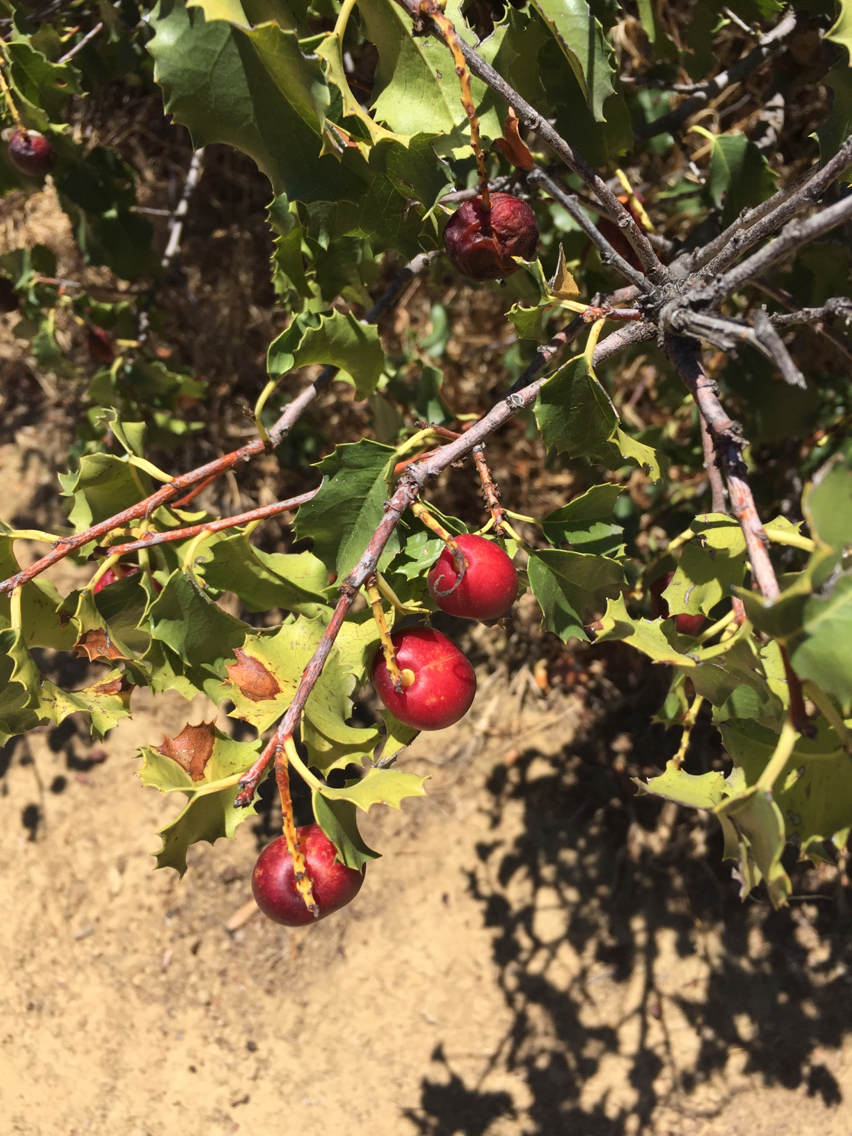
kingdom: Plantae
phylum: Tracheophyta
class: Magnoliopsida
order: Rosales
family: Rosaceae
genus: Prunus
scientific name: Prunus ilicifolia
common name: Hollyleaf cherry
